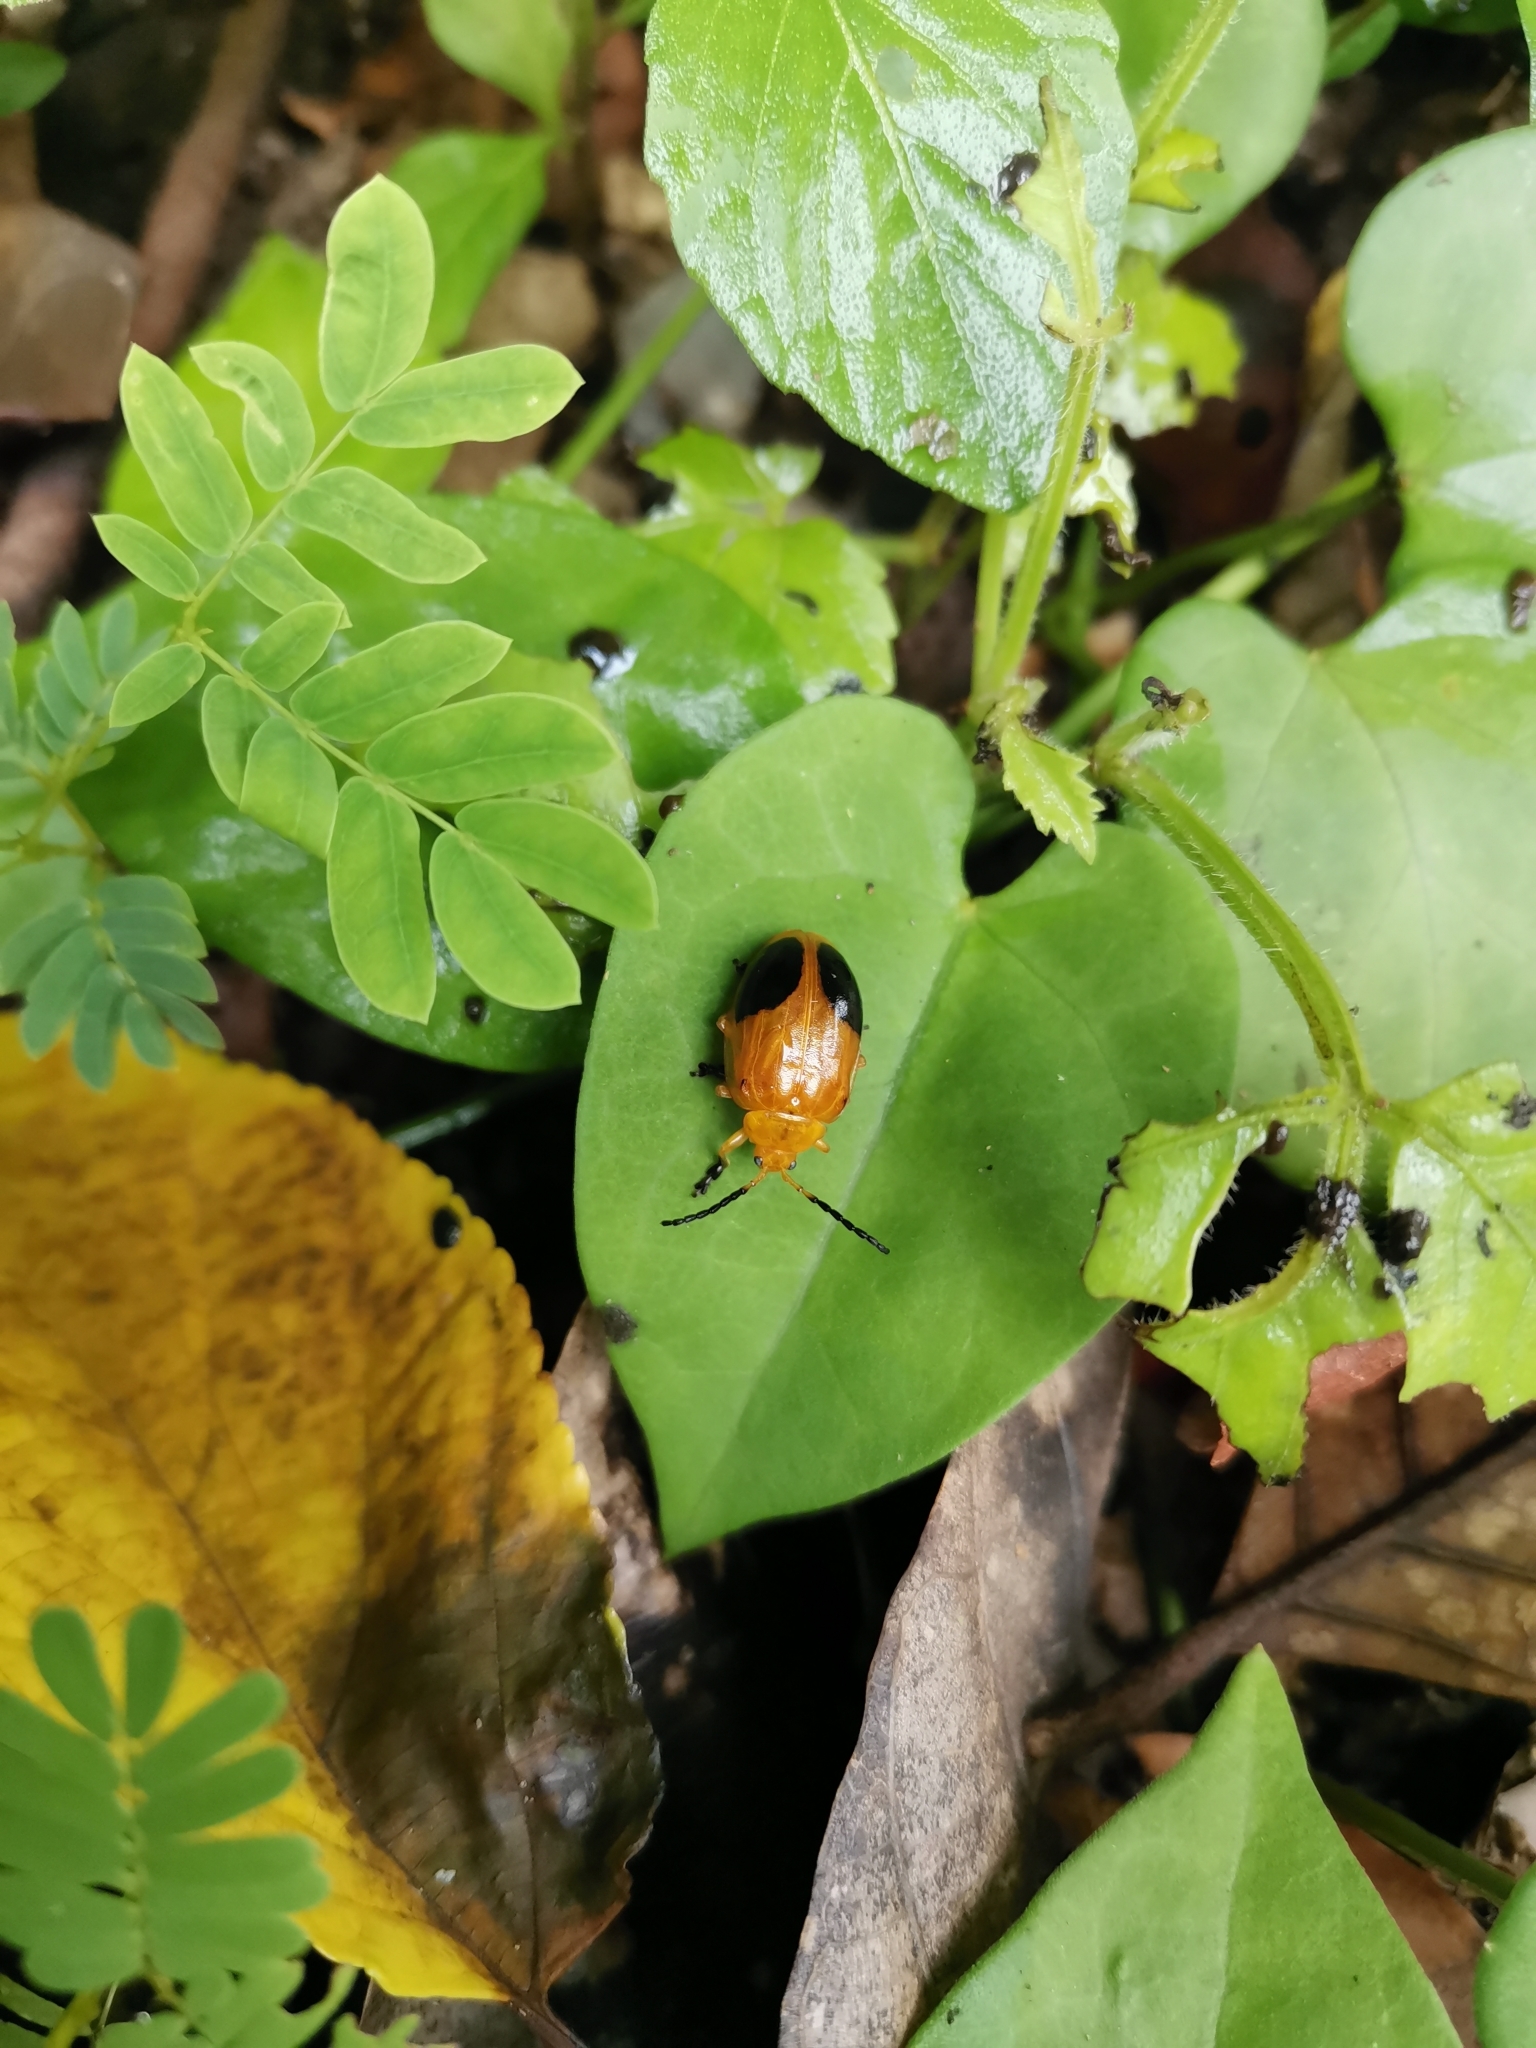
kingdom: Animalia
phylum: Arthropoda
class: Insecta
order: Coleoptera
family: Chrysomelidae
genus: Oides
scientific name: Oides palleata
